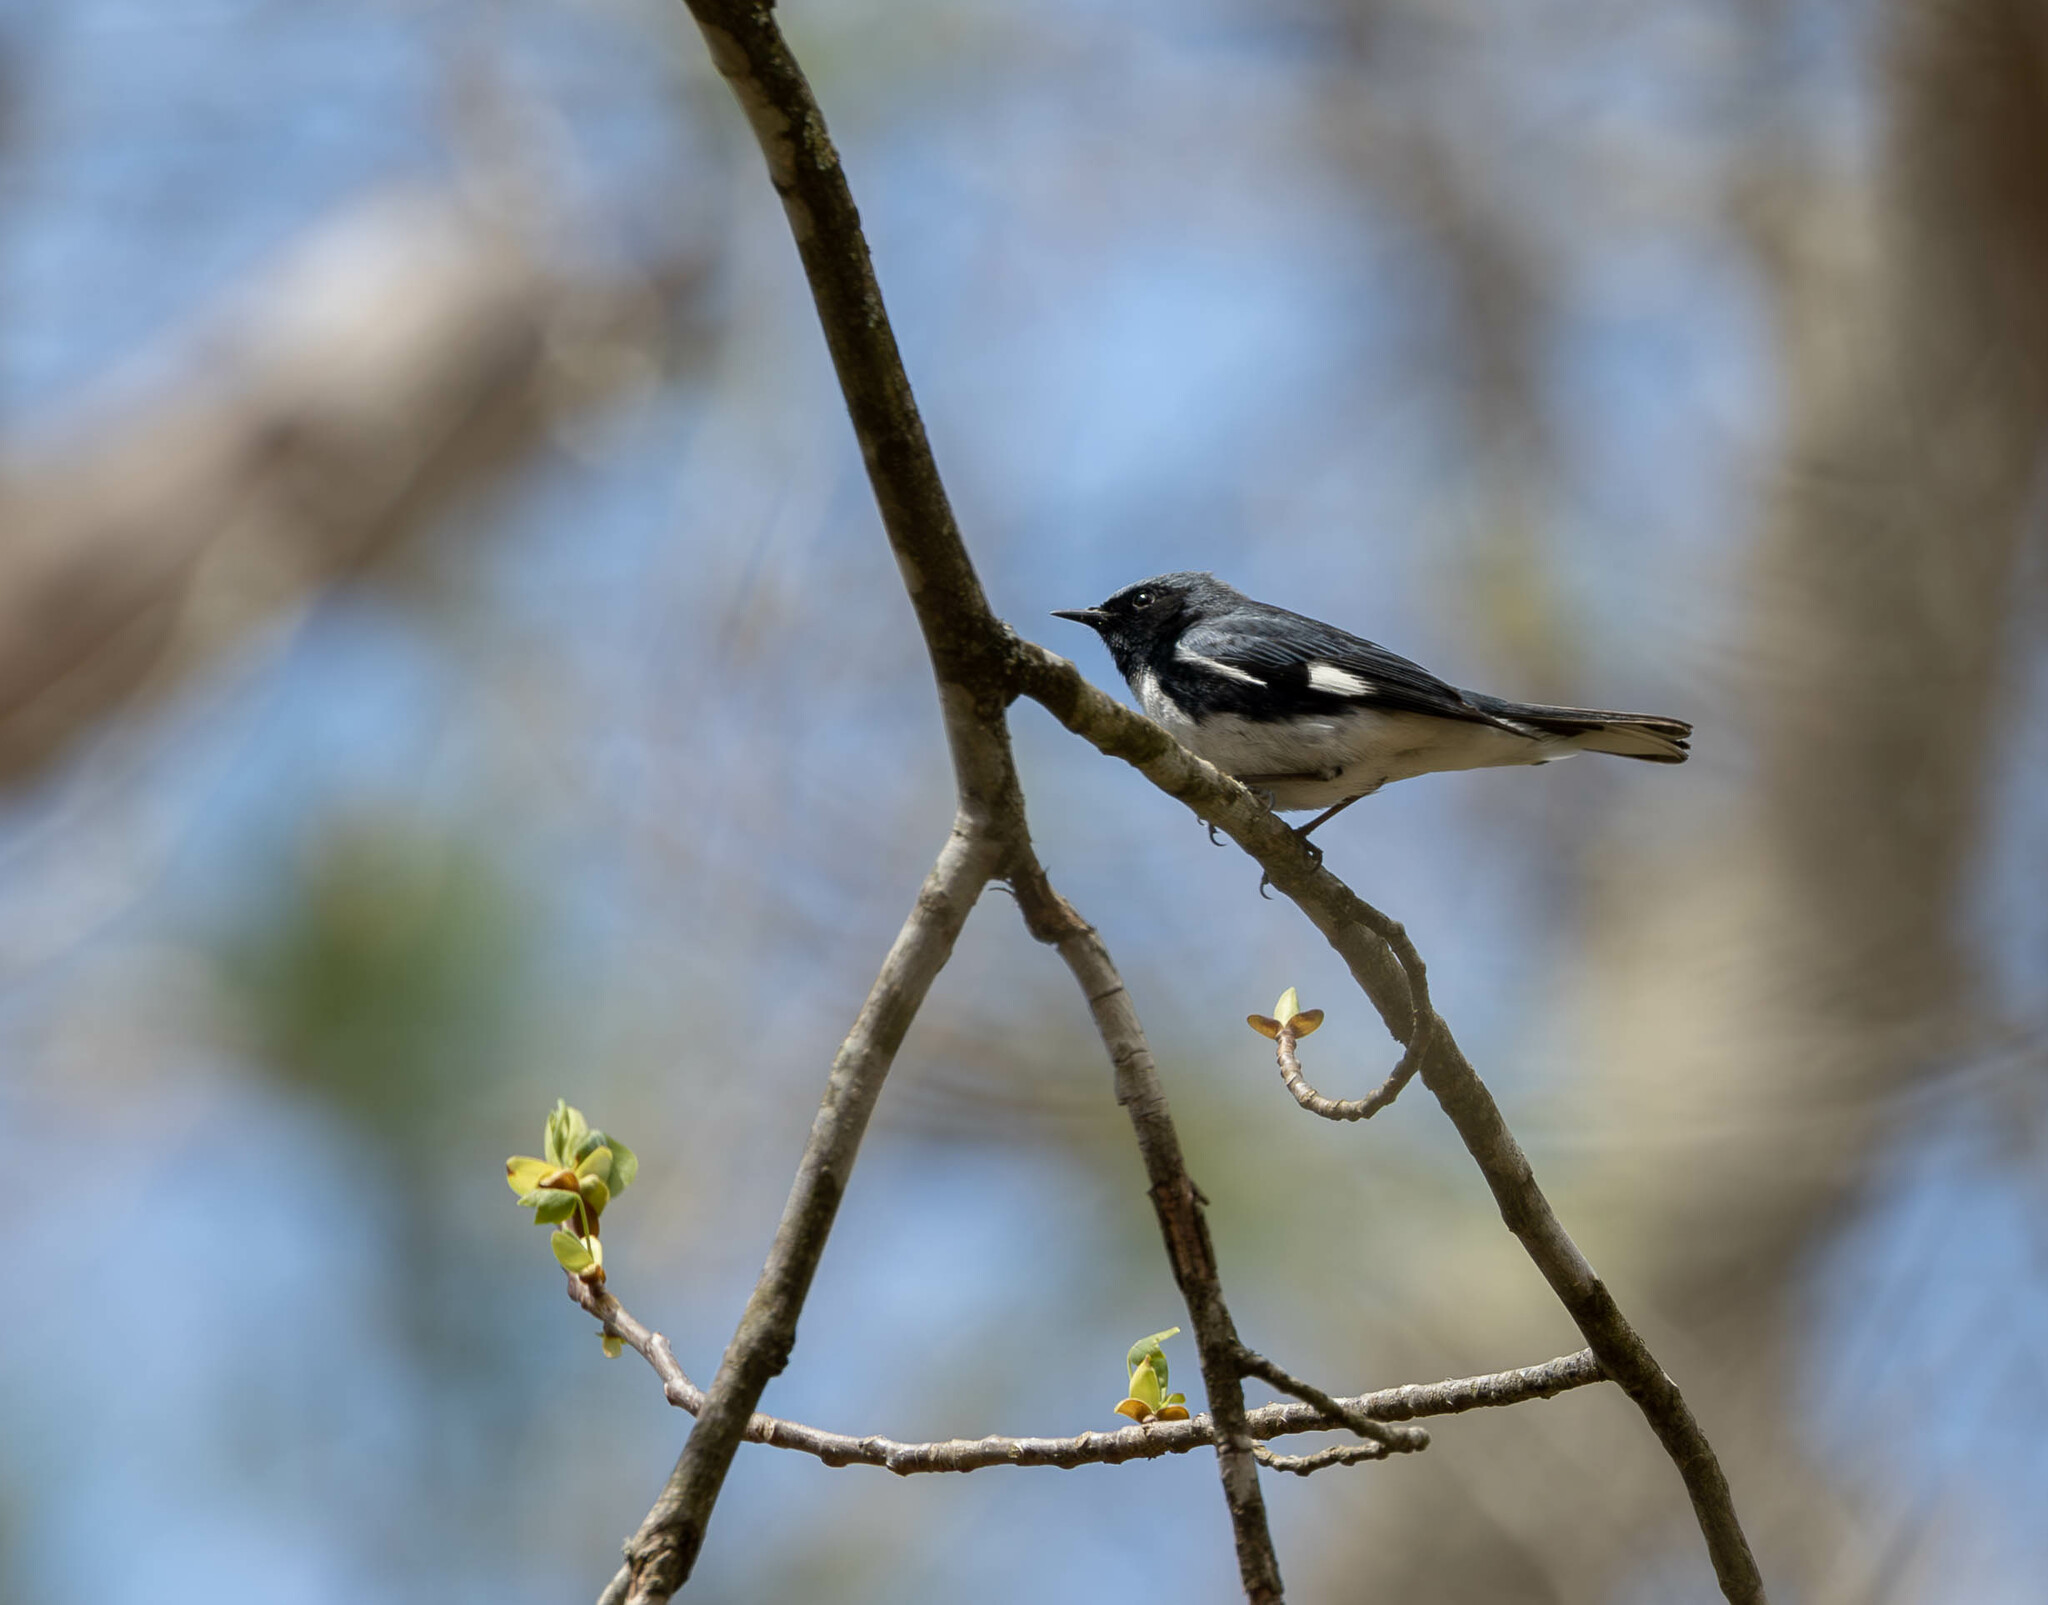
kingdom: Animalia
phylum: Chordata
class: Aves
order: Passeriformes
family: Parulidae
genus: Setophaga
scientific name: Setophaga caerulescens
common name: Black-throated blue warbler
